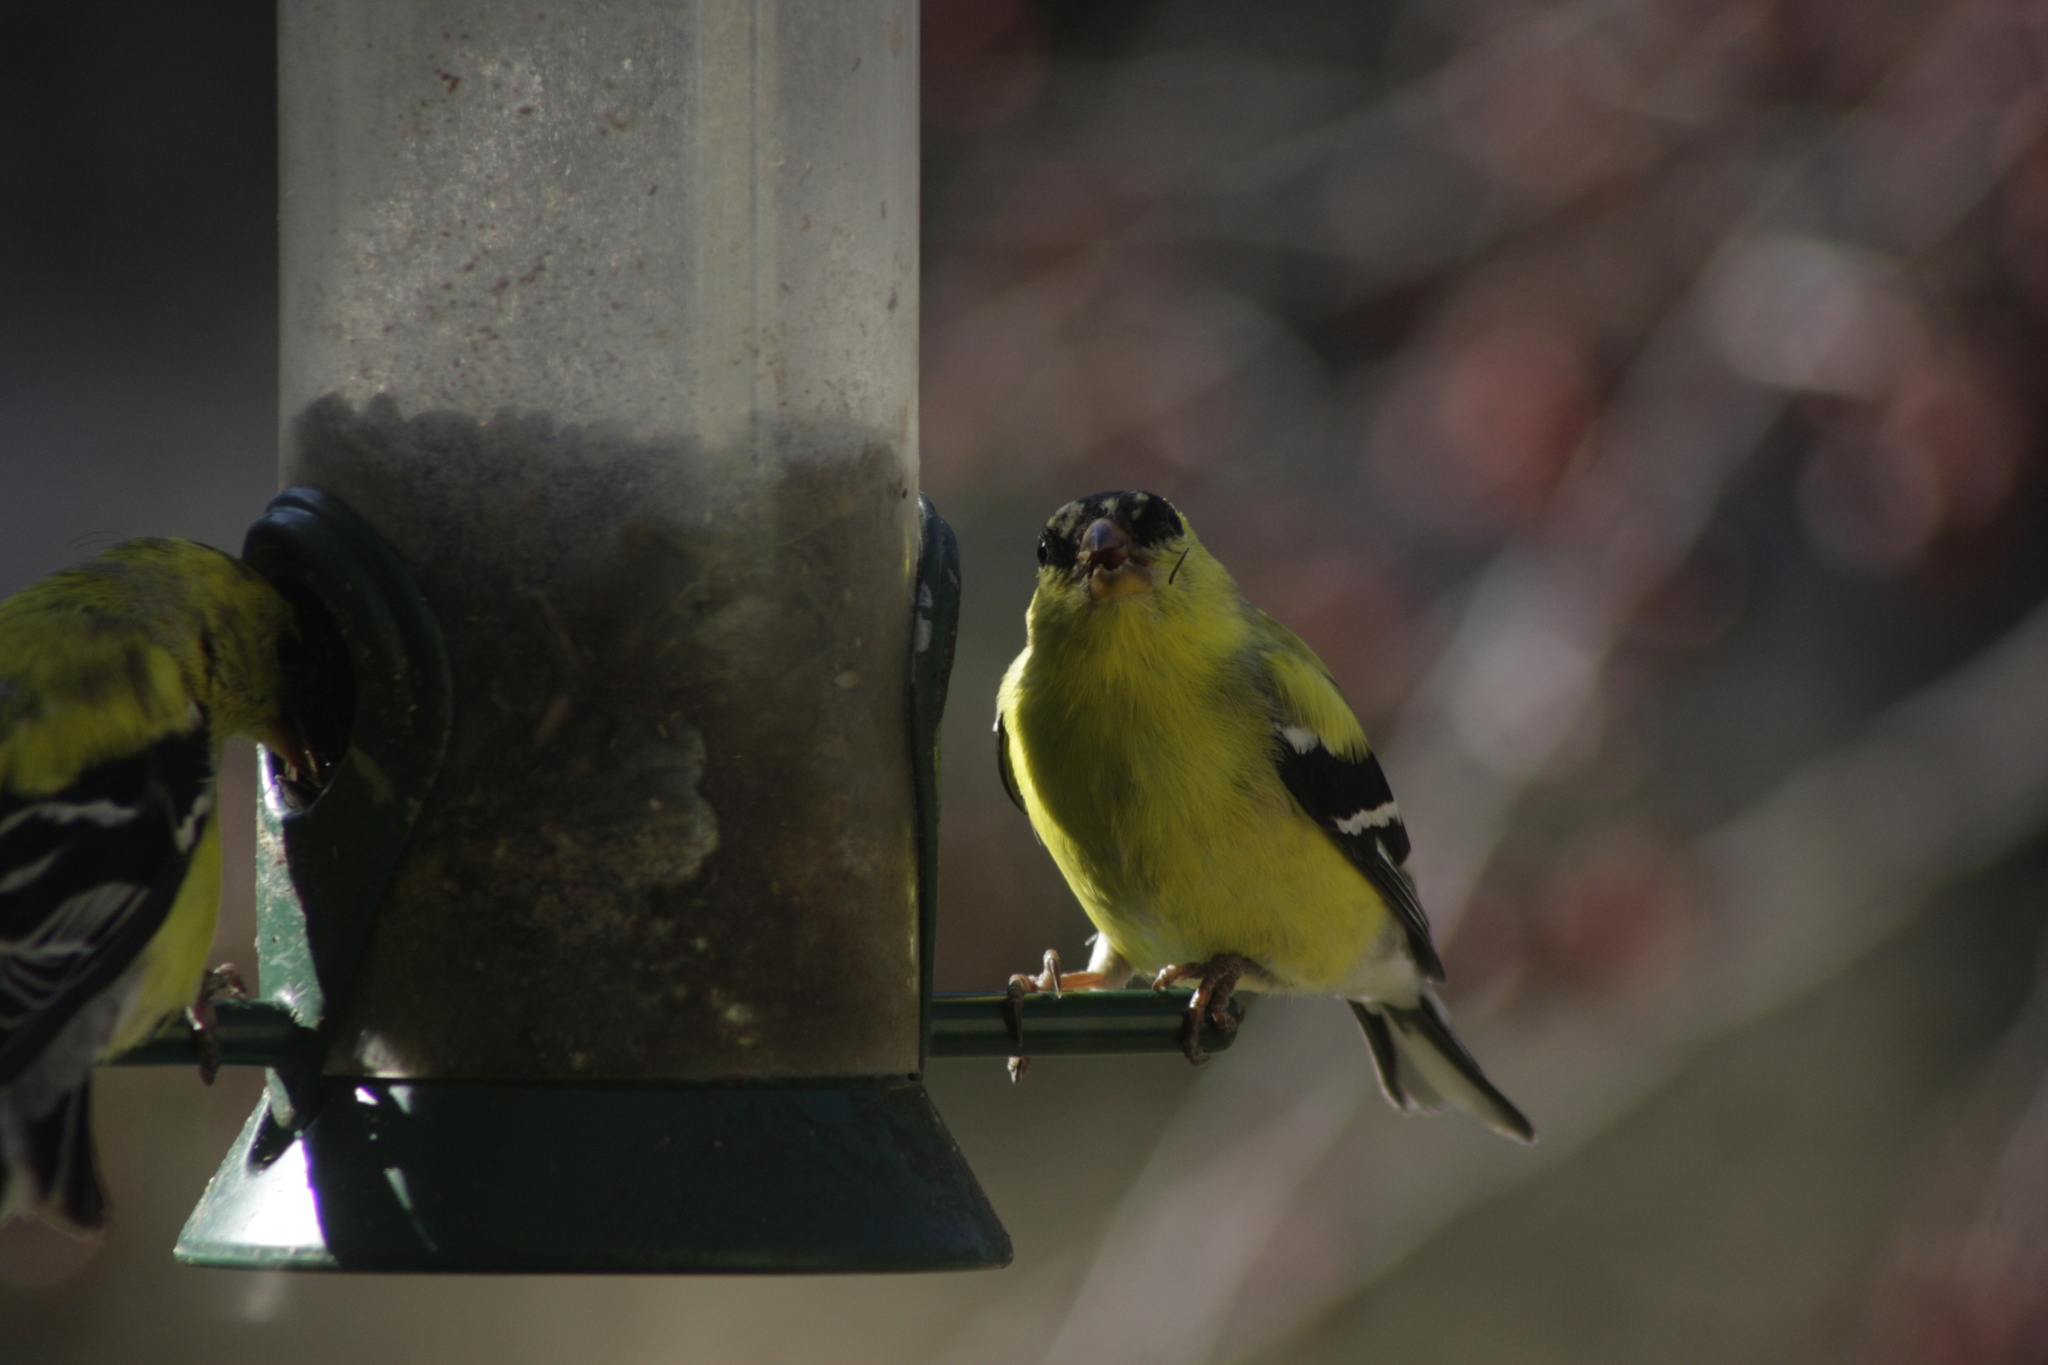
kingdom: Animalia
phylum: Chordata
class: Aves
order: Passeriformes
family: Fringillidae
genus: Spinus
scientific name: Spinus tristis
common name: American goldfinch
